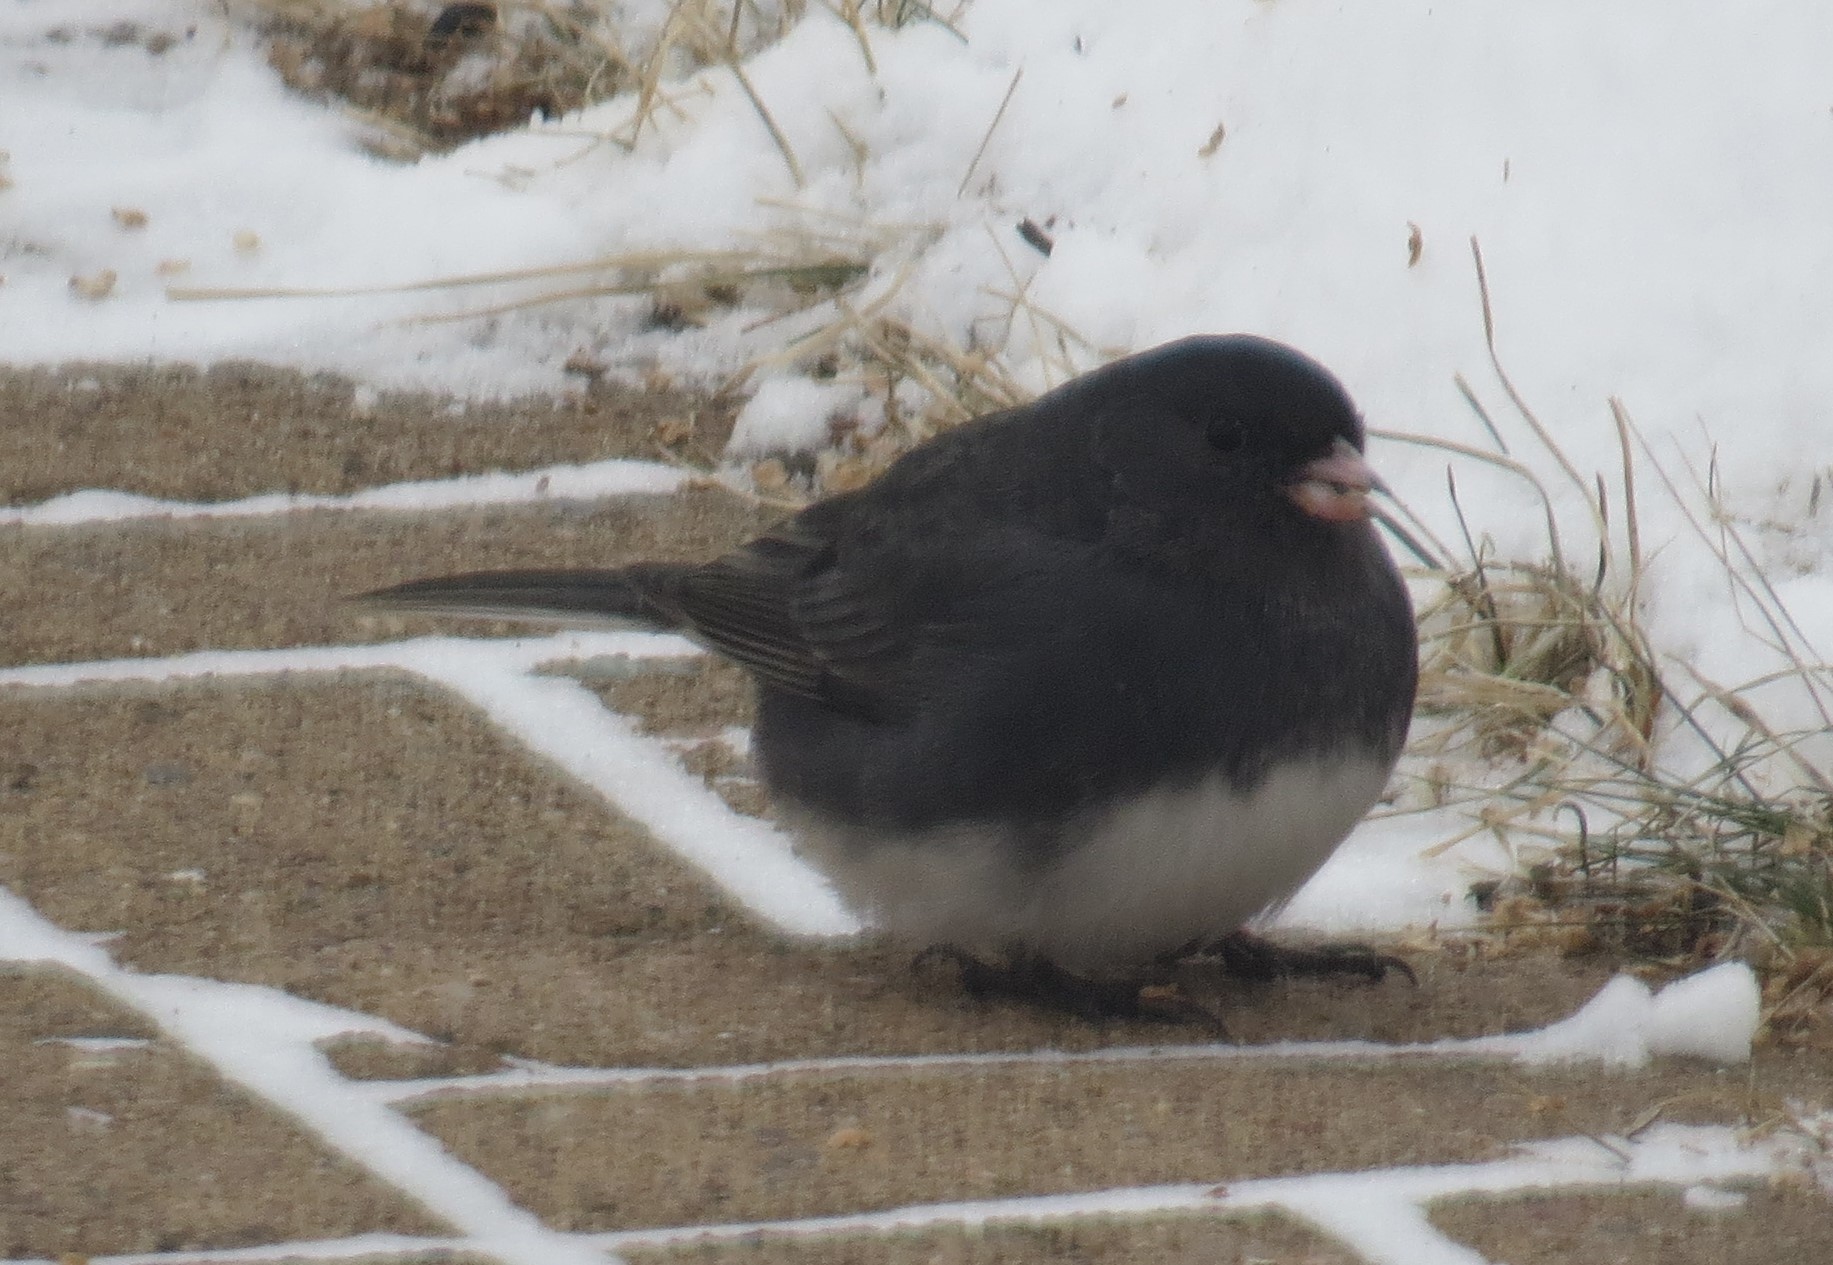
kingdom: Animalia
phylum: Chordata
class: Aves
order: Passeriformes
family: Passerellidae
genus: Junco
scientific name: Junco hyemalis
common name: Dark-eyed junco
